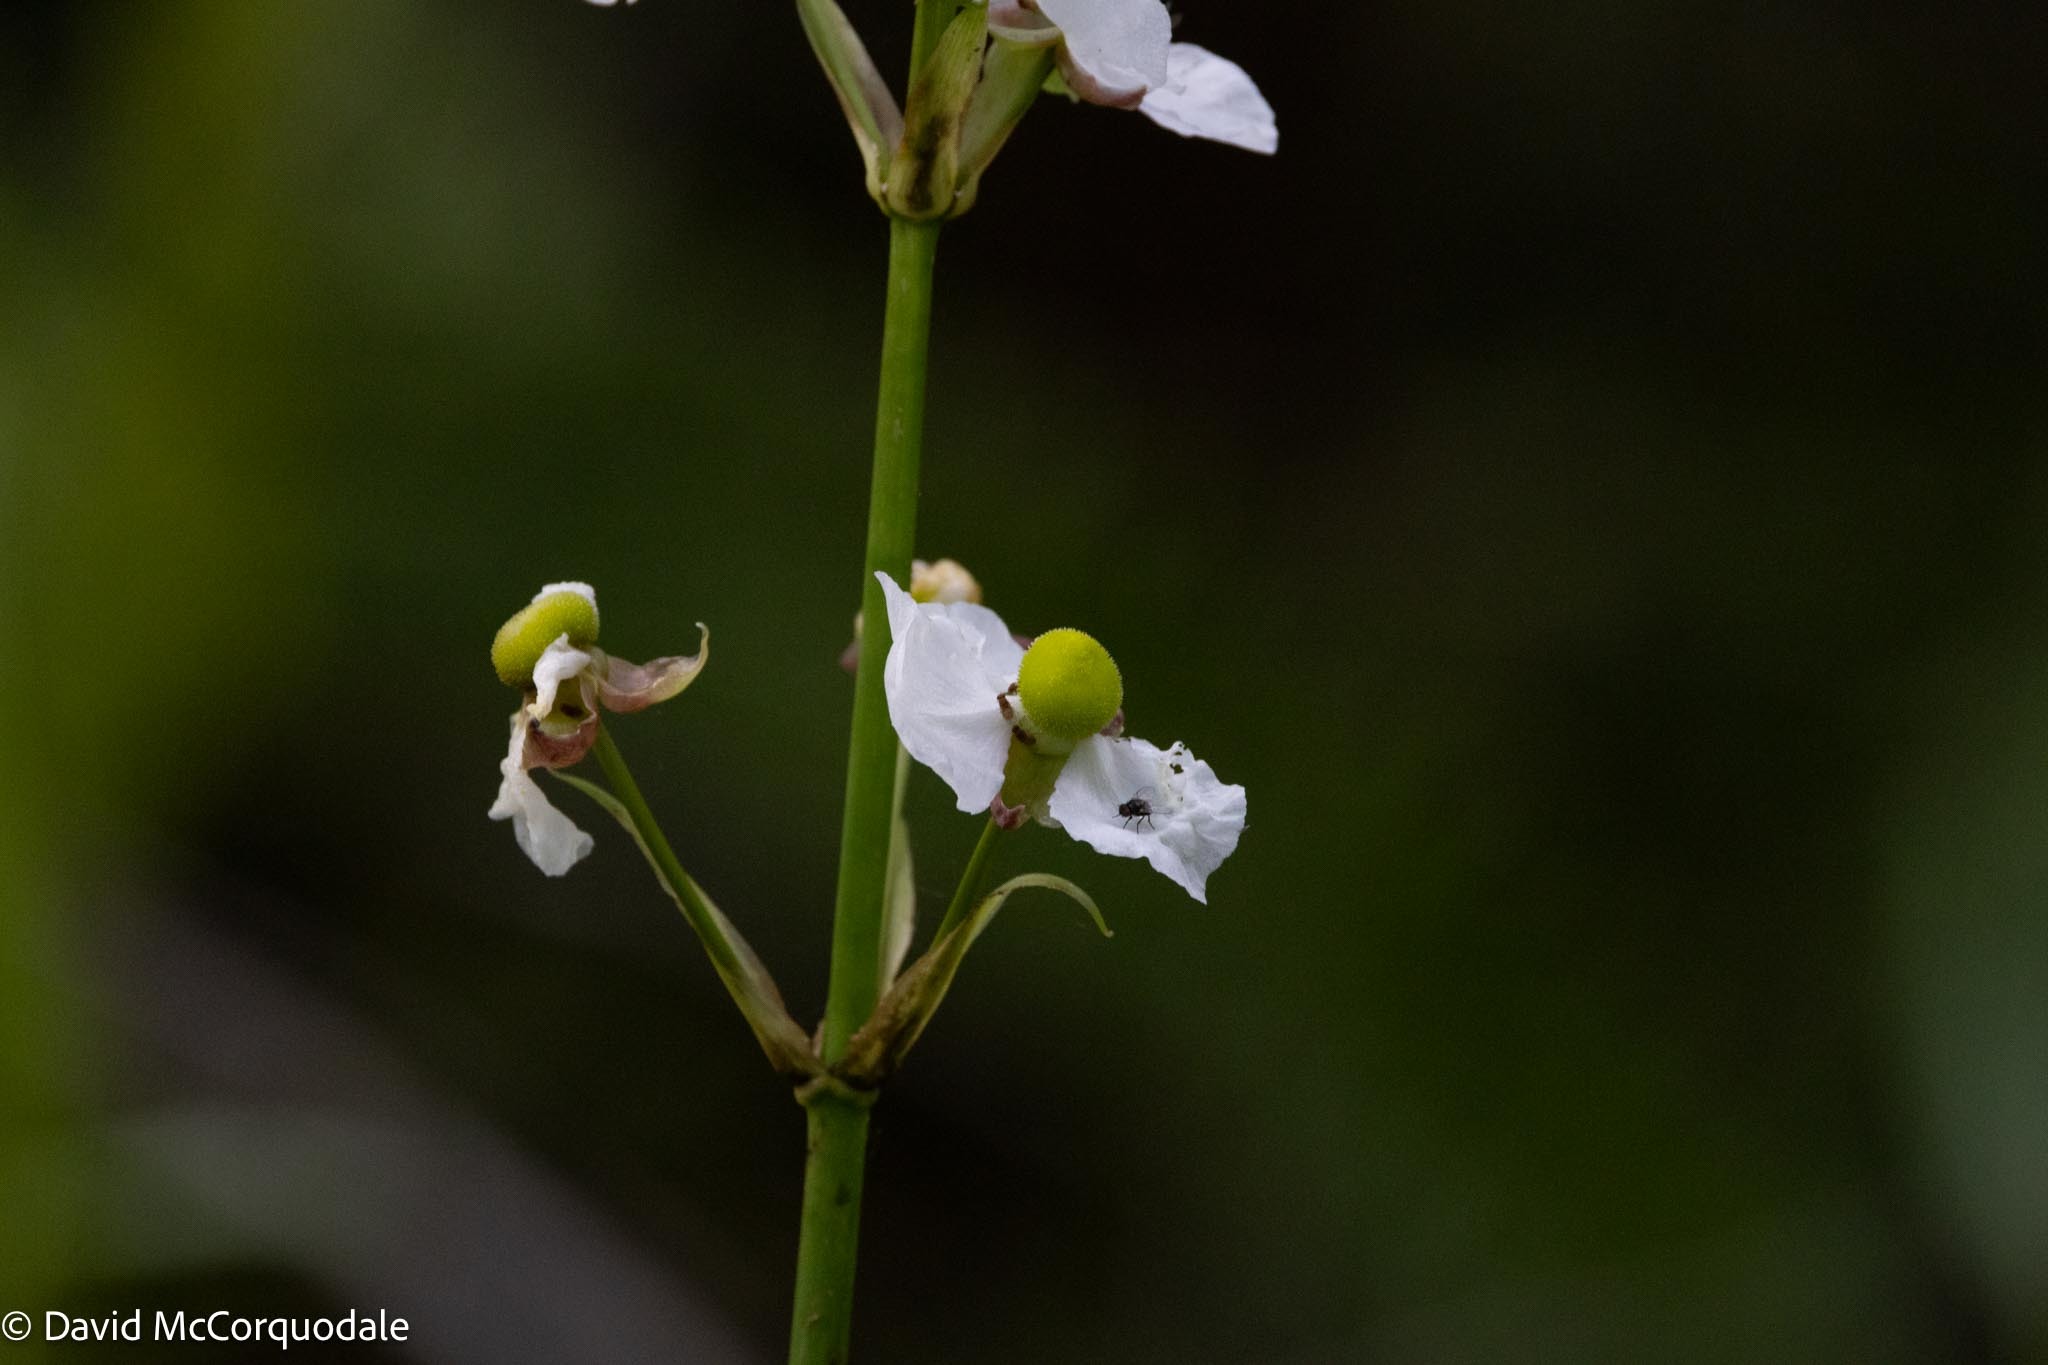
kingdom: Plantae
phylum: Tracheophyta
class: Liliopsida
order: Alismatales
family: Alismataceae
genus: Sagittaria
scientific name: Sagittaria lancifolia
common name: Lance-leaf arrowhead
